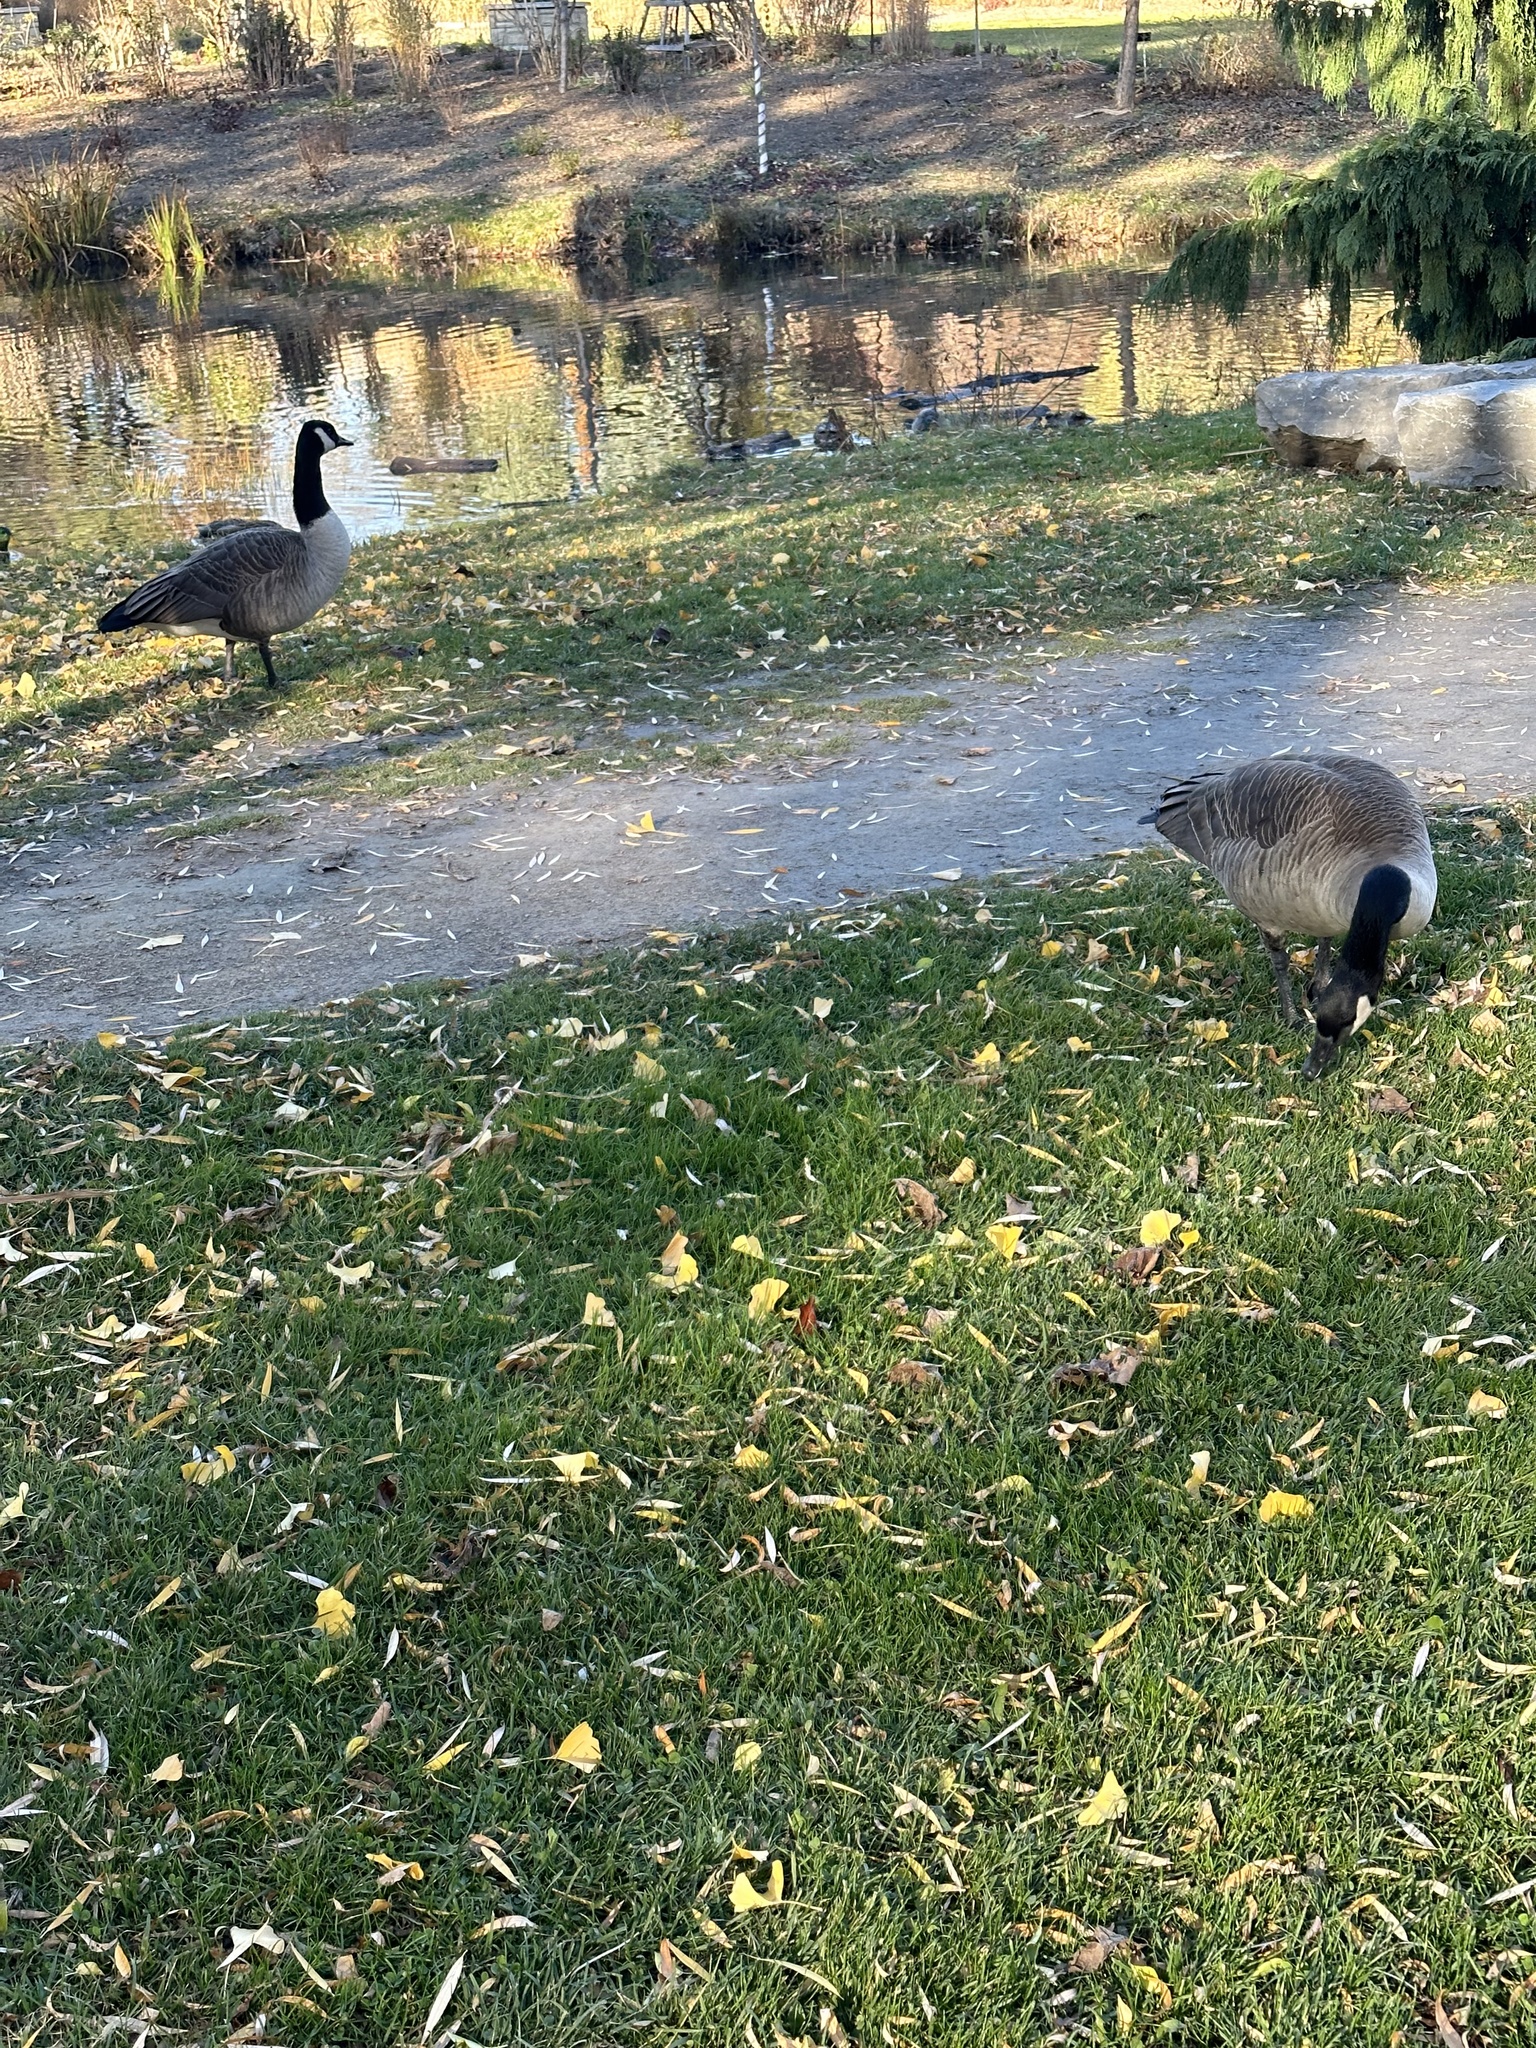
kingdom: Animalia
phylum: Chordata
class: Aves
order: Anseriformes
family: Anatidae
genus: Branta
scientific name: Branta canadensis
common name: Canada goose
